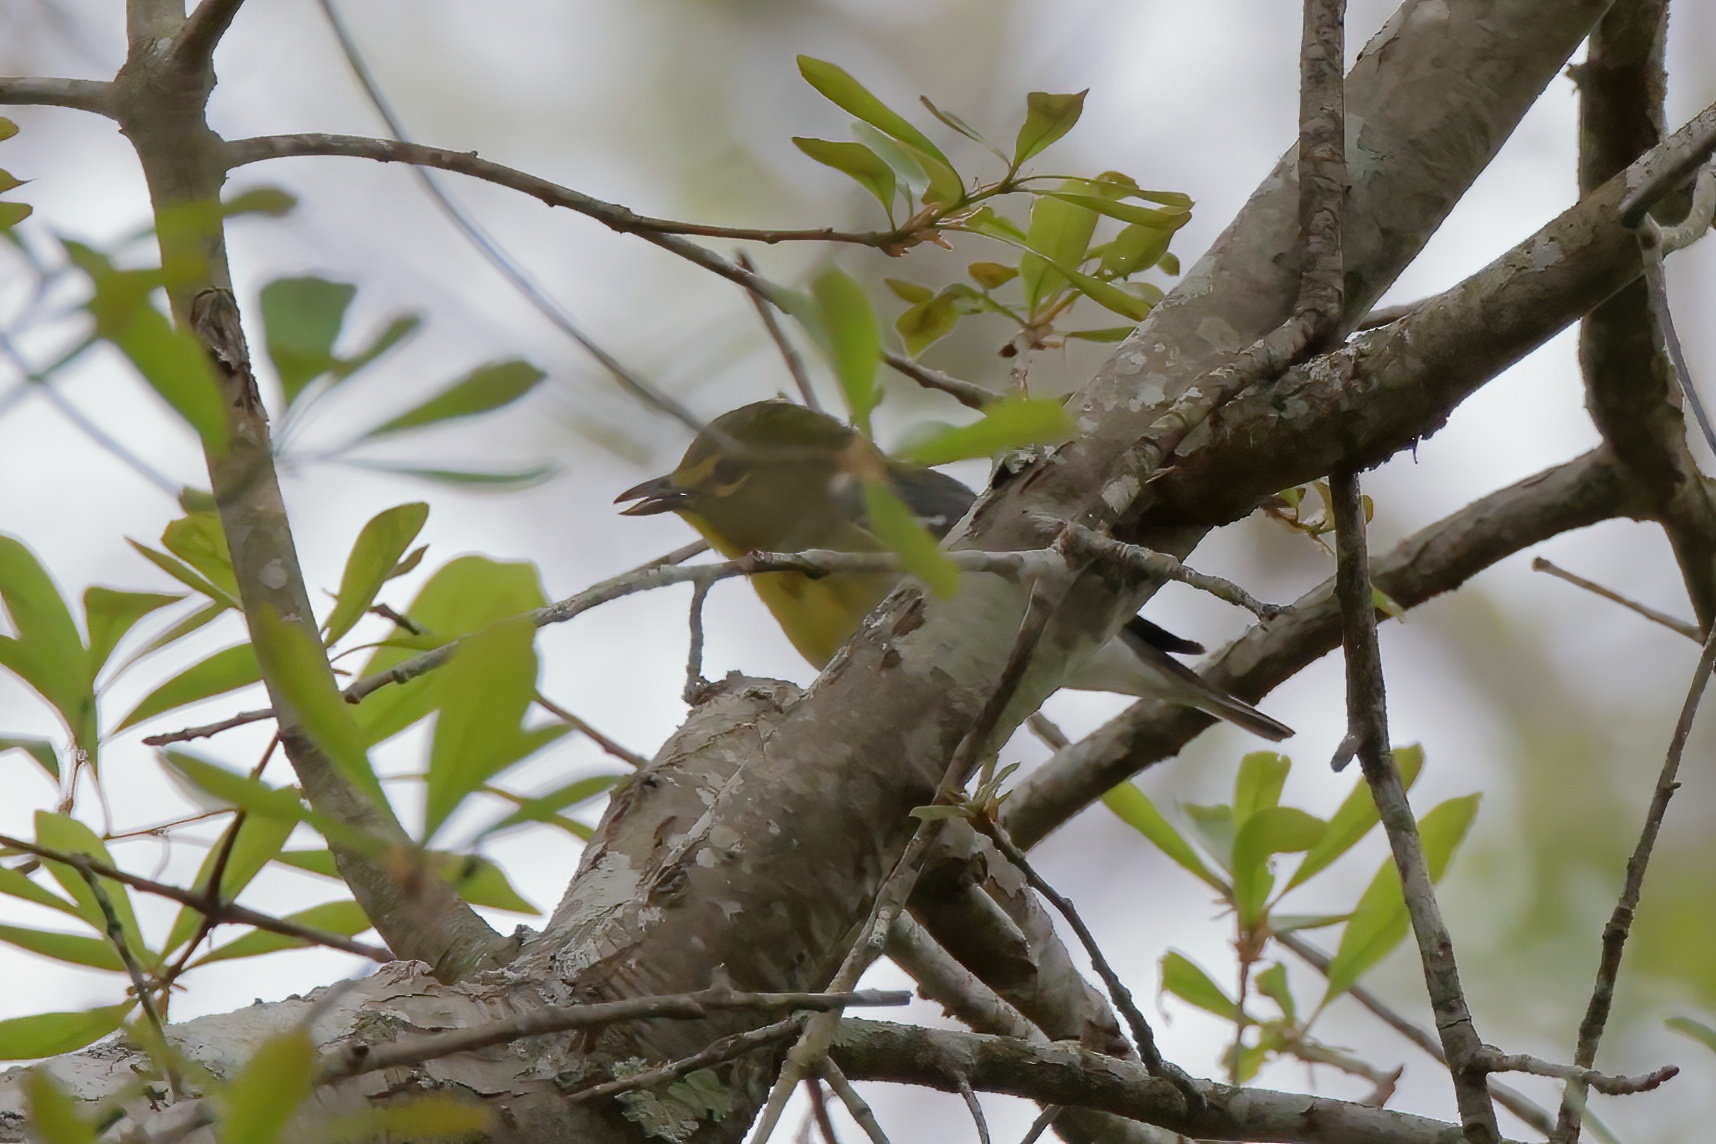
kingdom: Animalia
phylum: Chordata
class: Aves
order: Passeriformes
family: Vireonidae
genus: Vireo
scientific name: Vireo flavifrons
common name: Yellow-throated vireo
